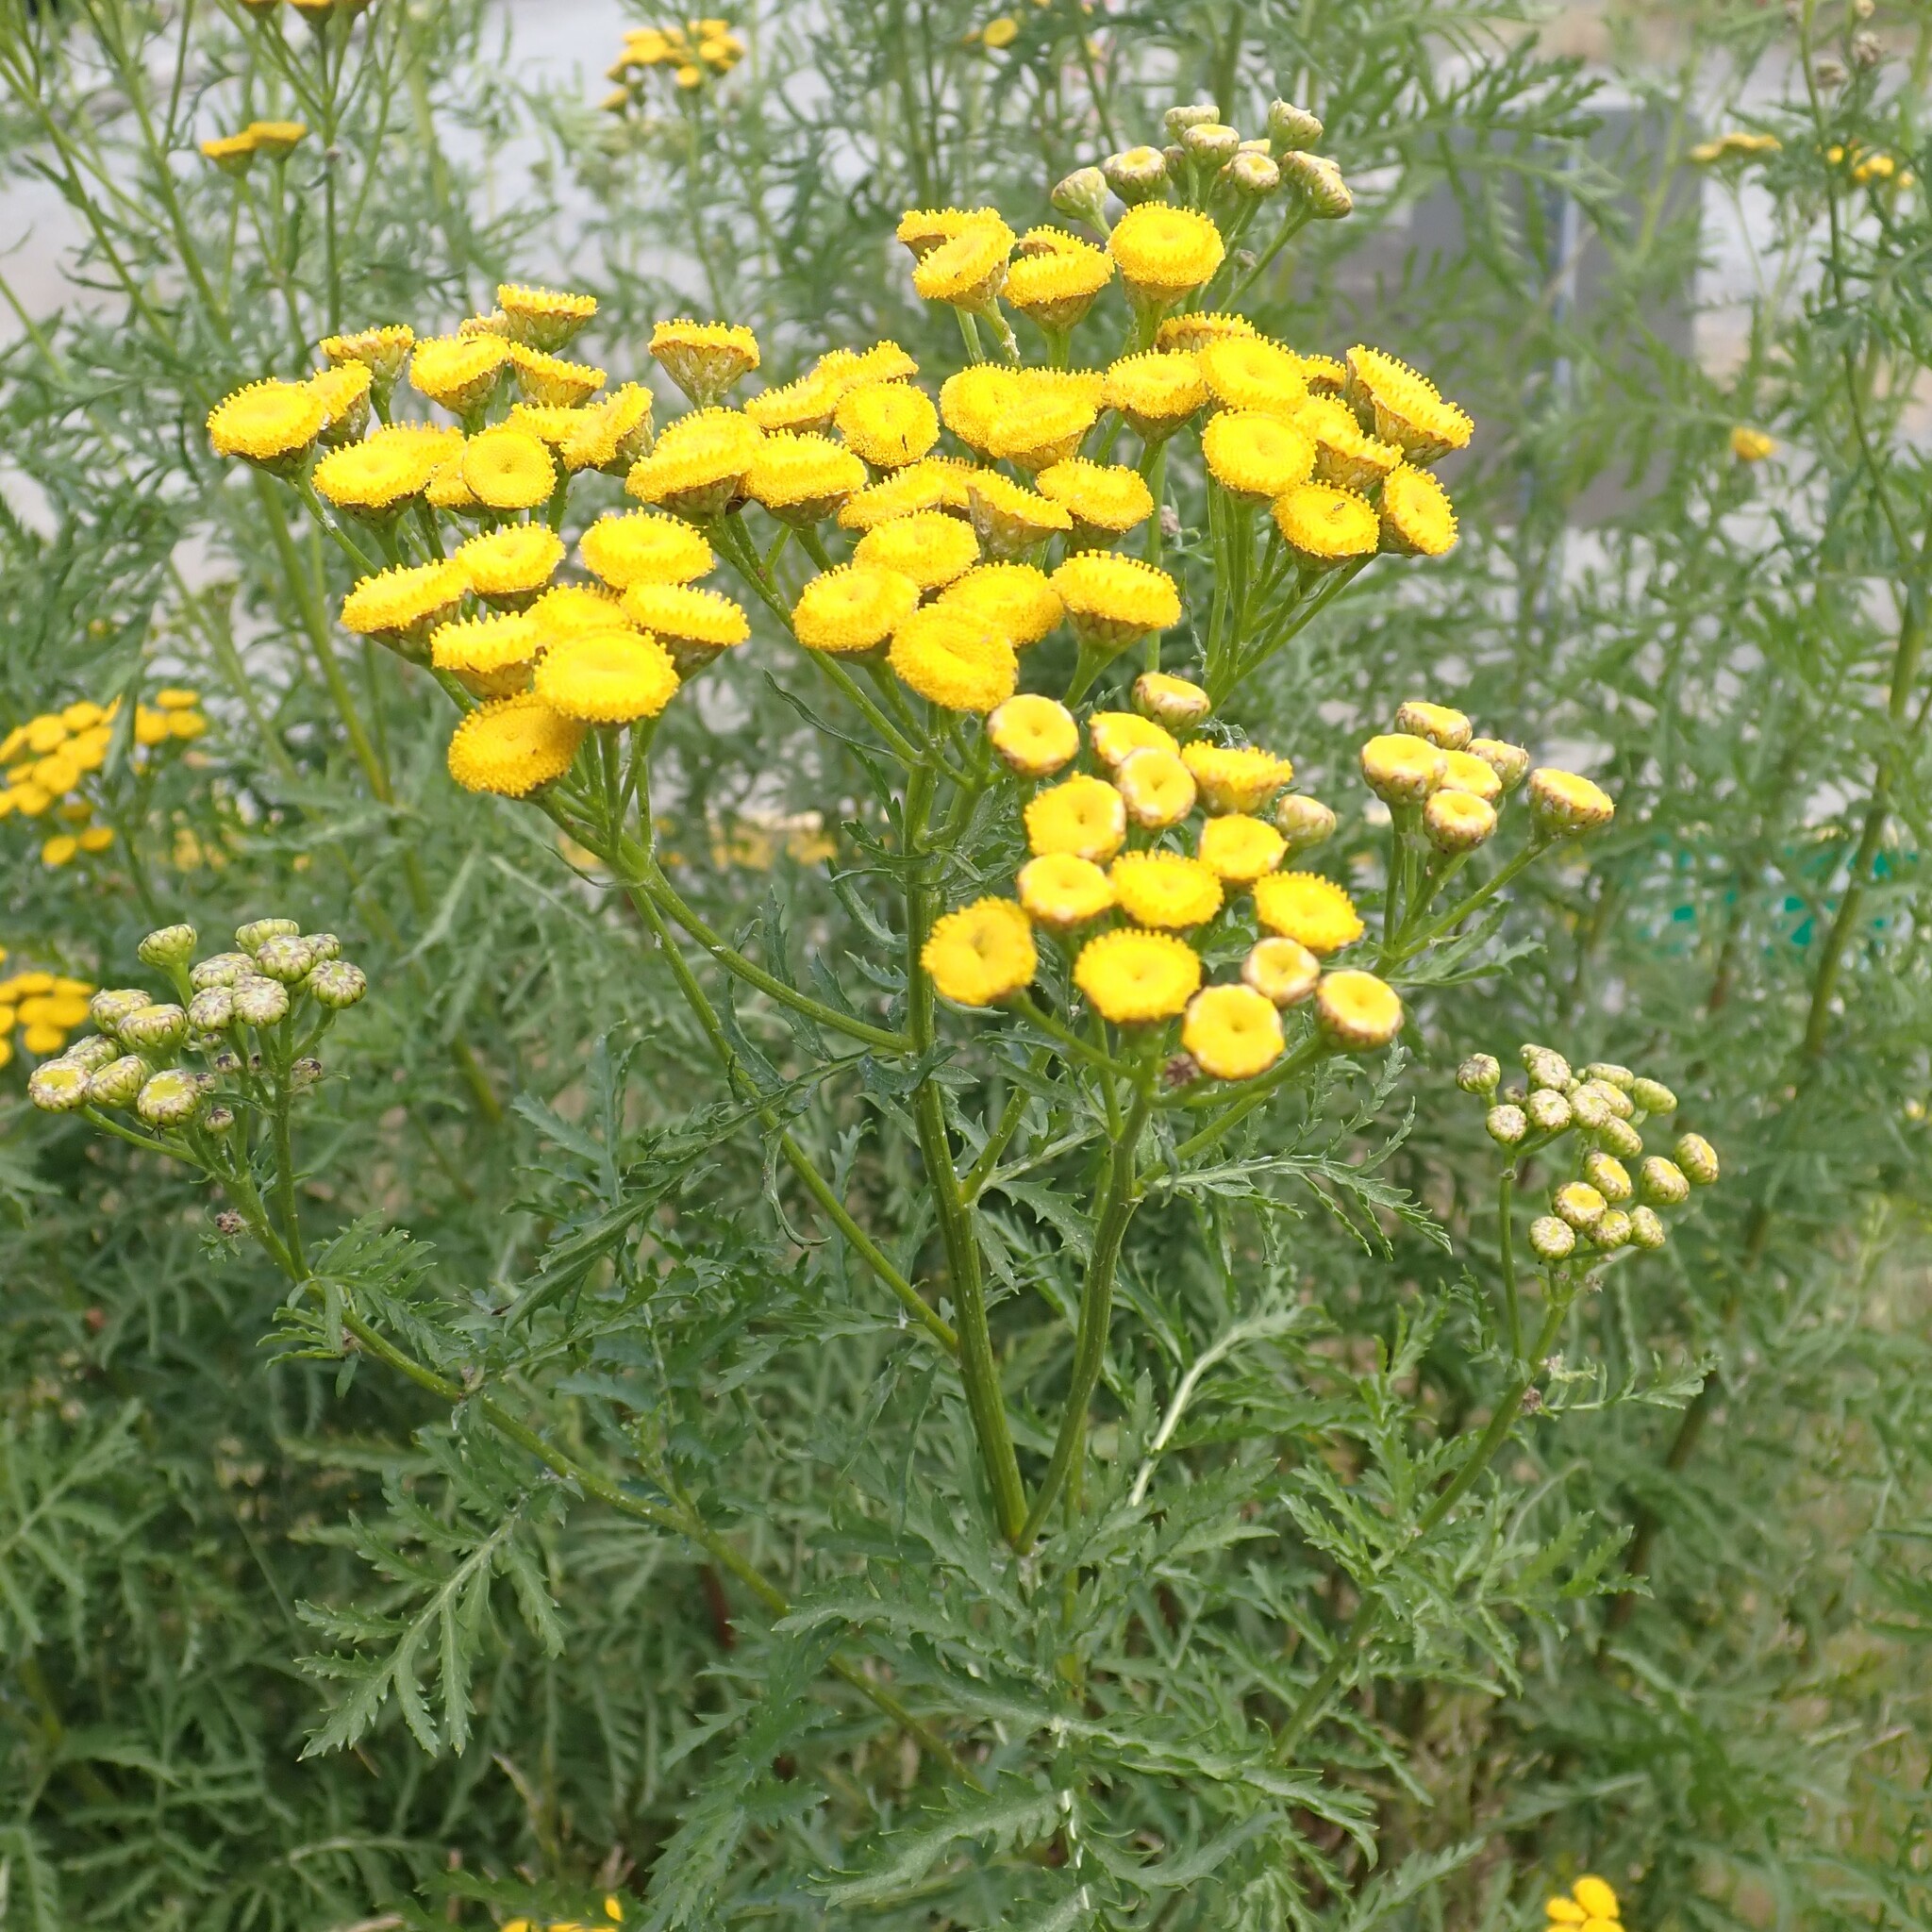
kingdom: Plantae
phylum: Tracheophyta
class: Magnoliopsida
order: Asterales
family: Asteraceae
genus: Tanacetum
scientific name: Tanacetum vulgare
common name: Common tansy
